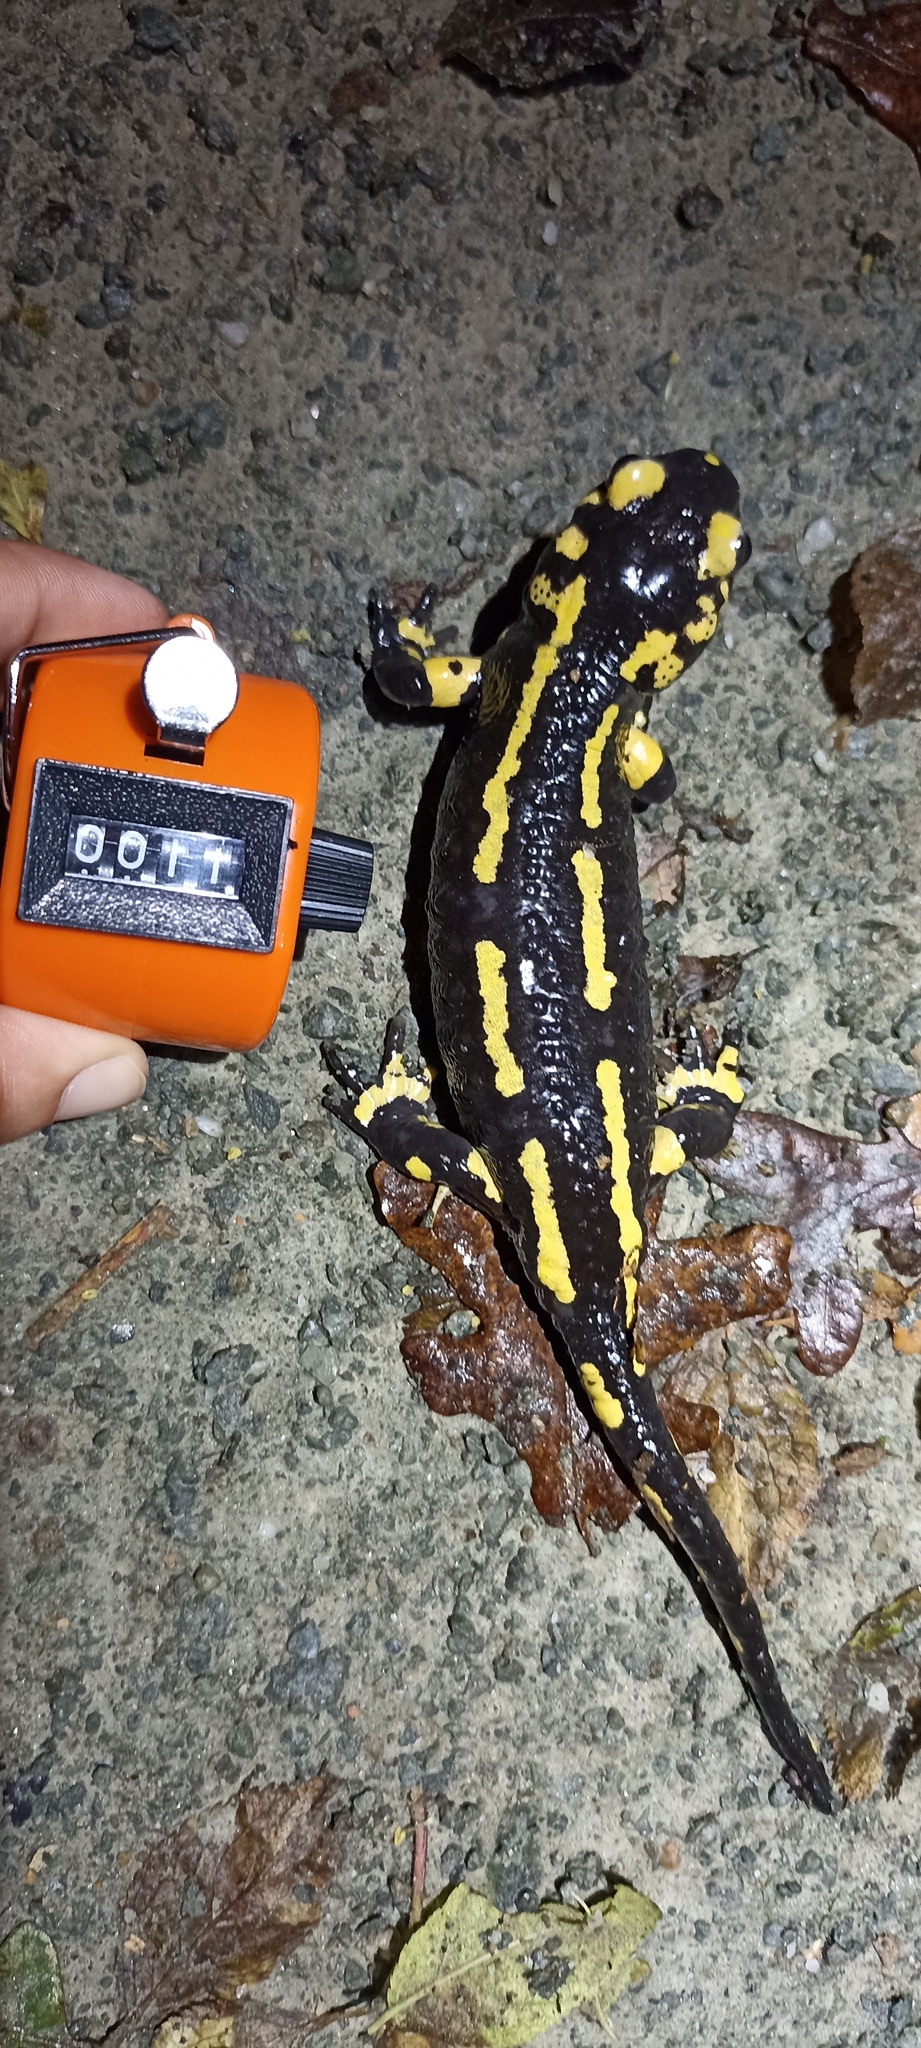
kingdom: Animalia
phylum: Chordata
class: Amphibia
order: Caudata
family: Salamandridae
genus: Salamandra
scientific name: Salamandra salamandra
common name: Fire salamander
